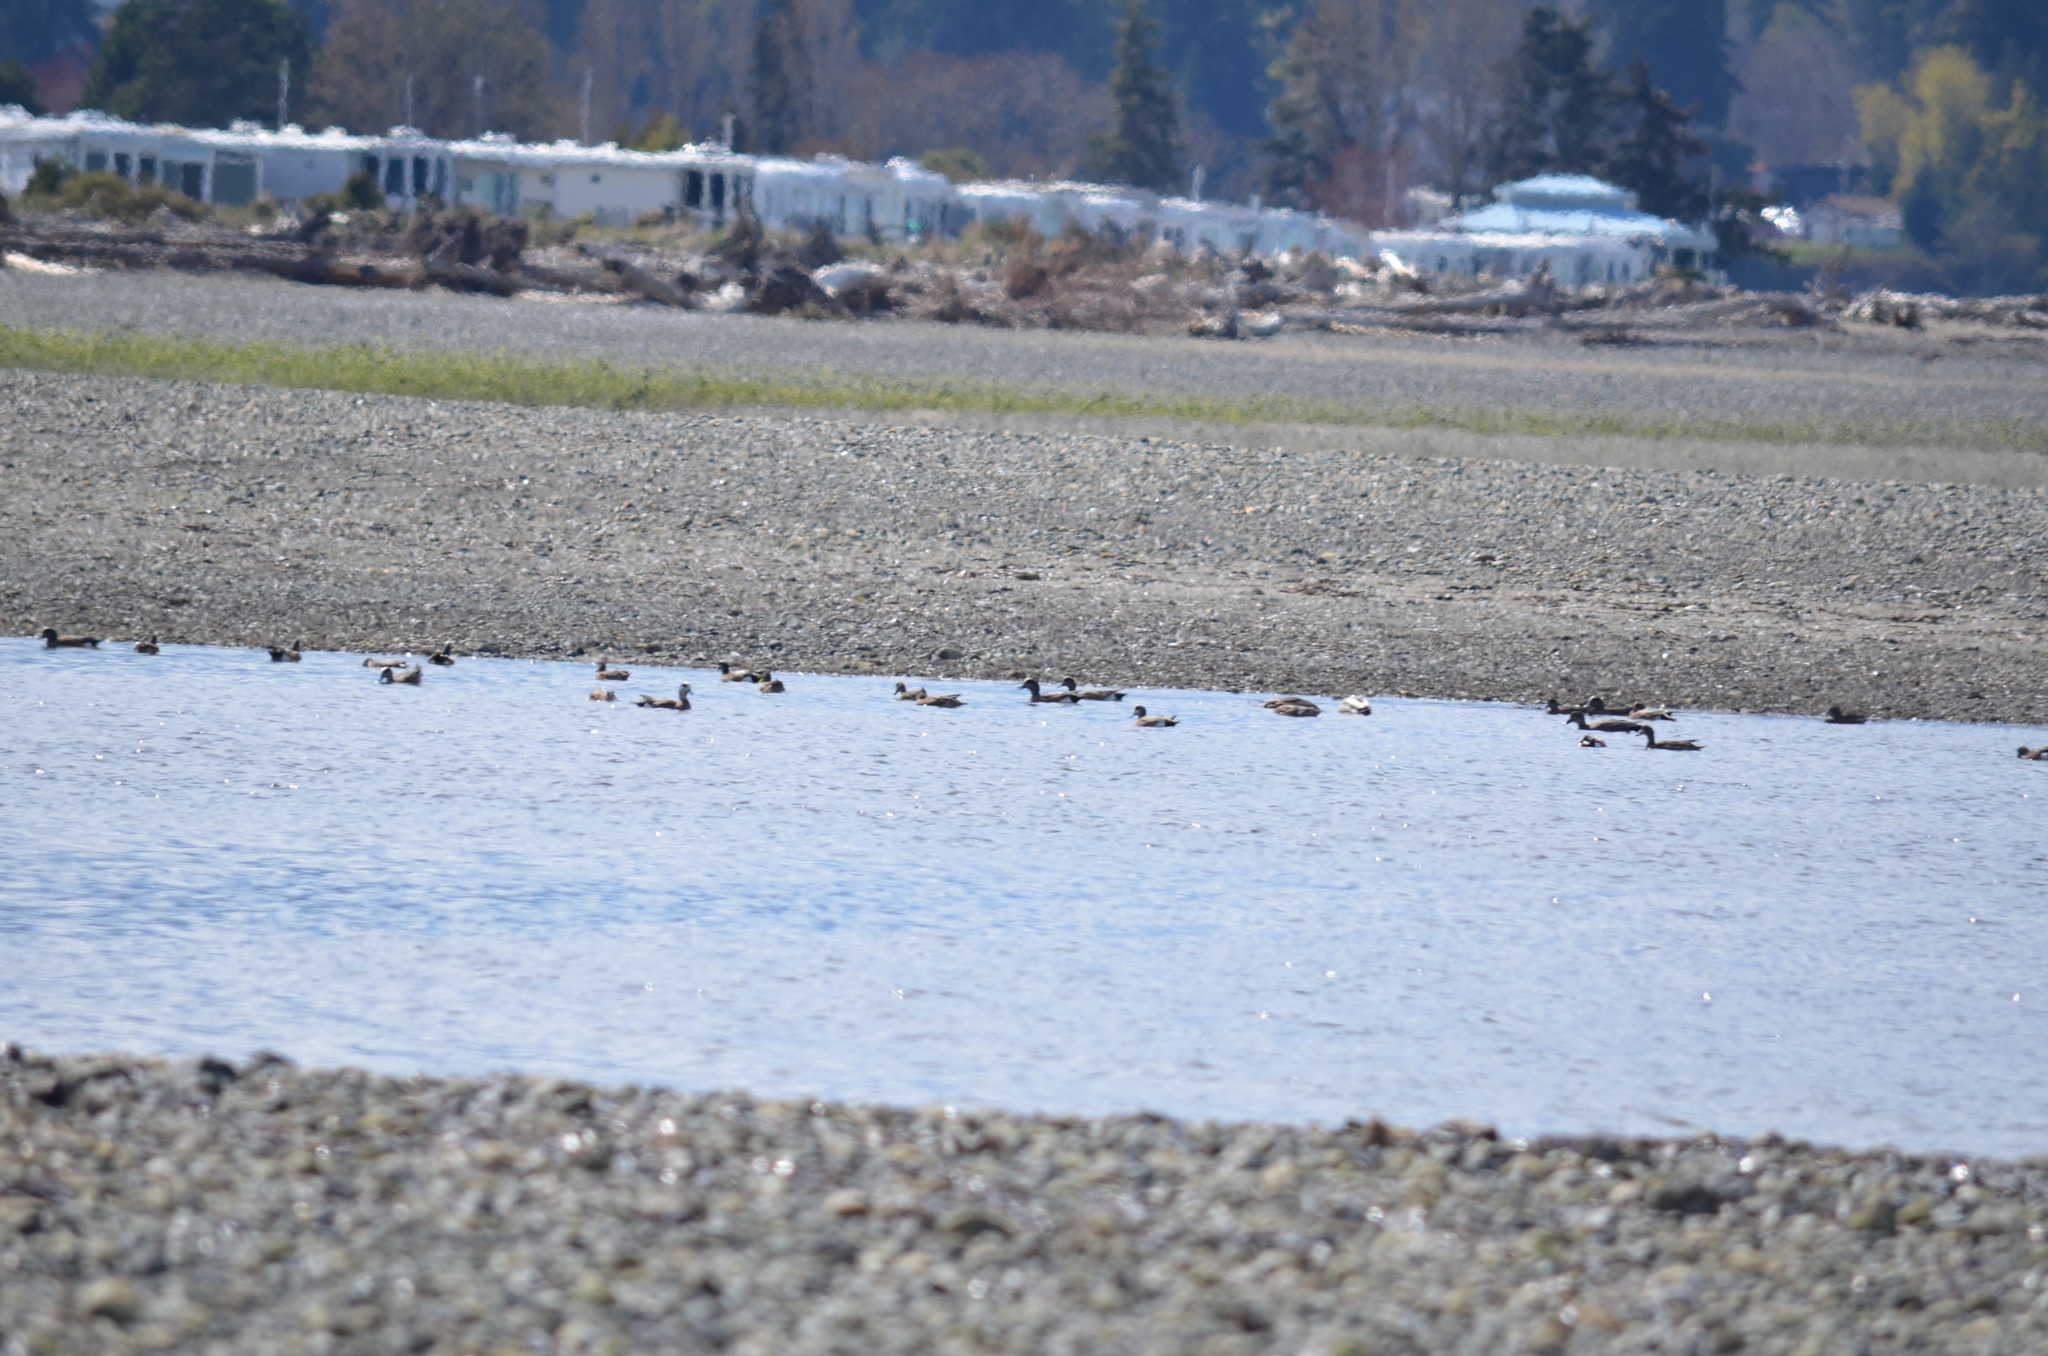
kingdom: Animalia
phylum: Chordata
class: Aves
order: Anseriformes
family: Anatidae
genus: Mareca
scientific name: Mareca americana
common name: American wigeon
